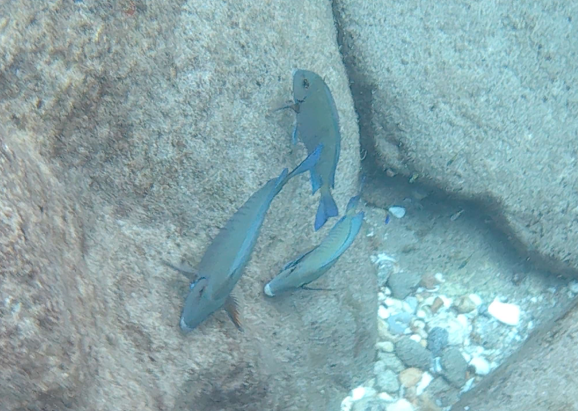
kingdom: Animalia
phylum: Chordata
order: Perciformes
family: Acanthuridae
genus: Acanthurus
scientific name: Acanthurus chirurgus
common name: Doctorfish
